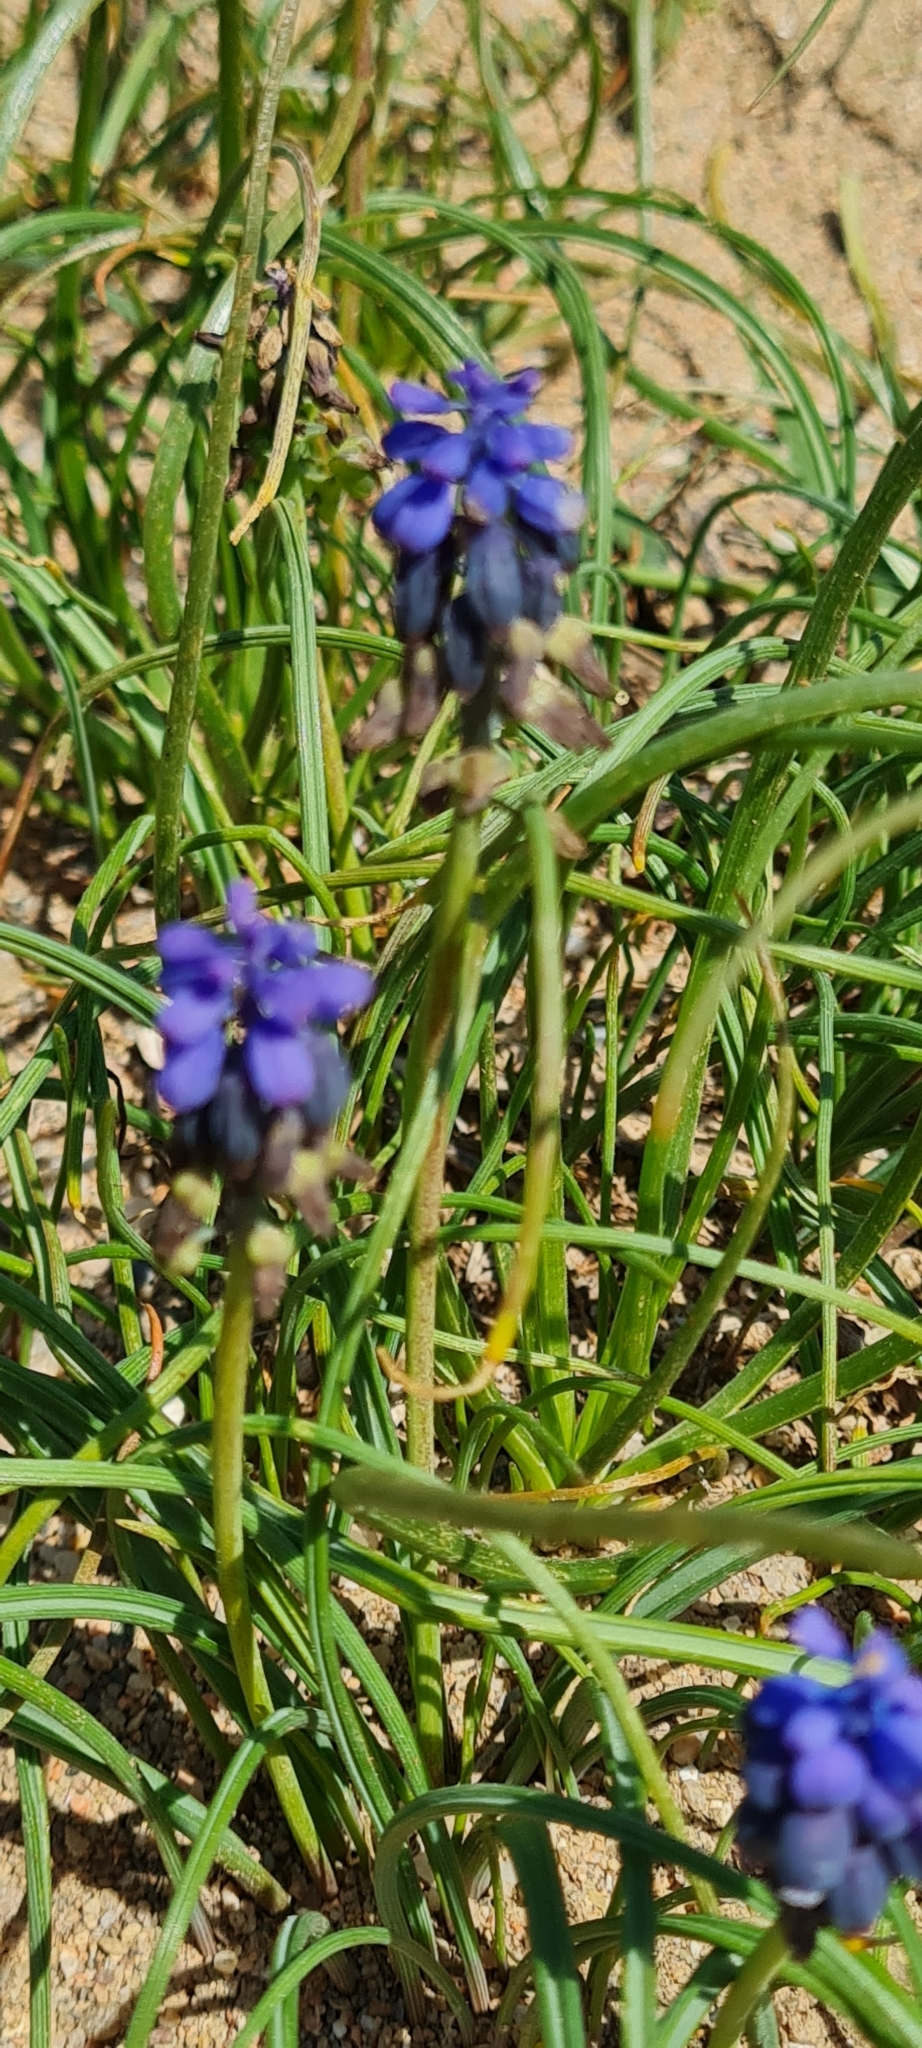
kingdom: Plantae
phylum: Tracheophyta
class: Liliopsida
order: Asparagales
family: Asparagaceae
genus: Muscari
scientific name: Muscari neglectum
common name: Grape-hyacinth
